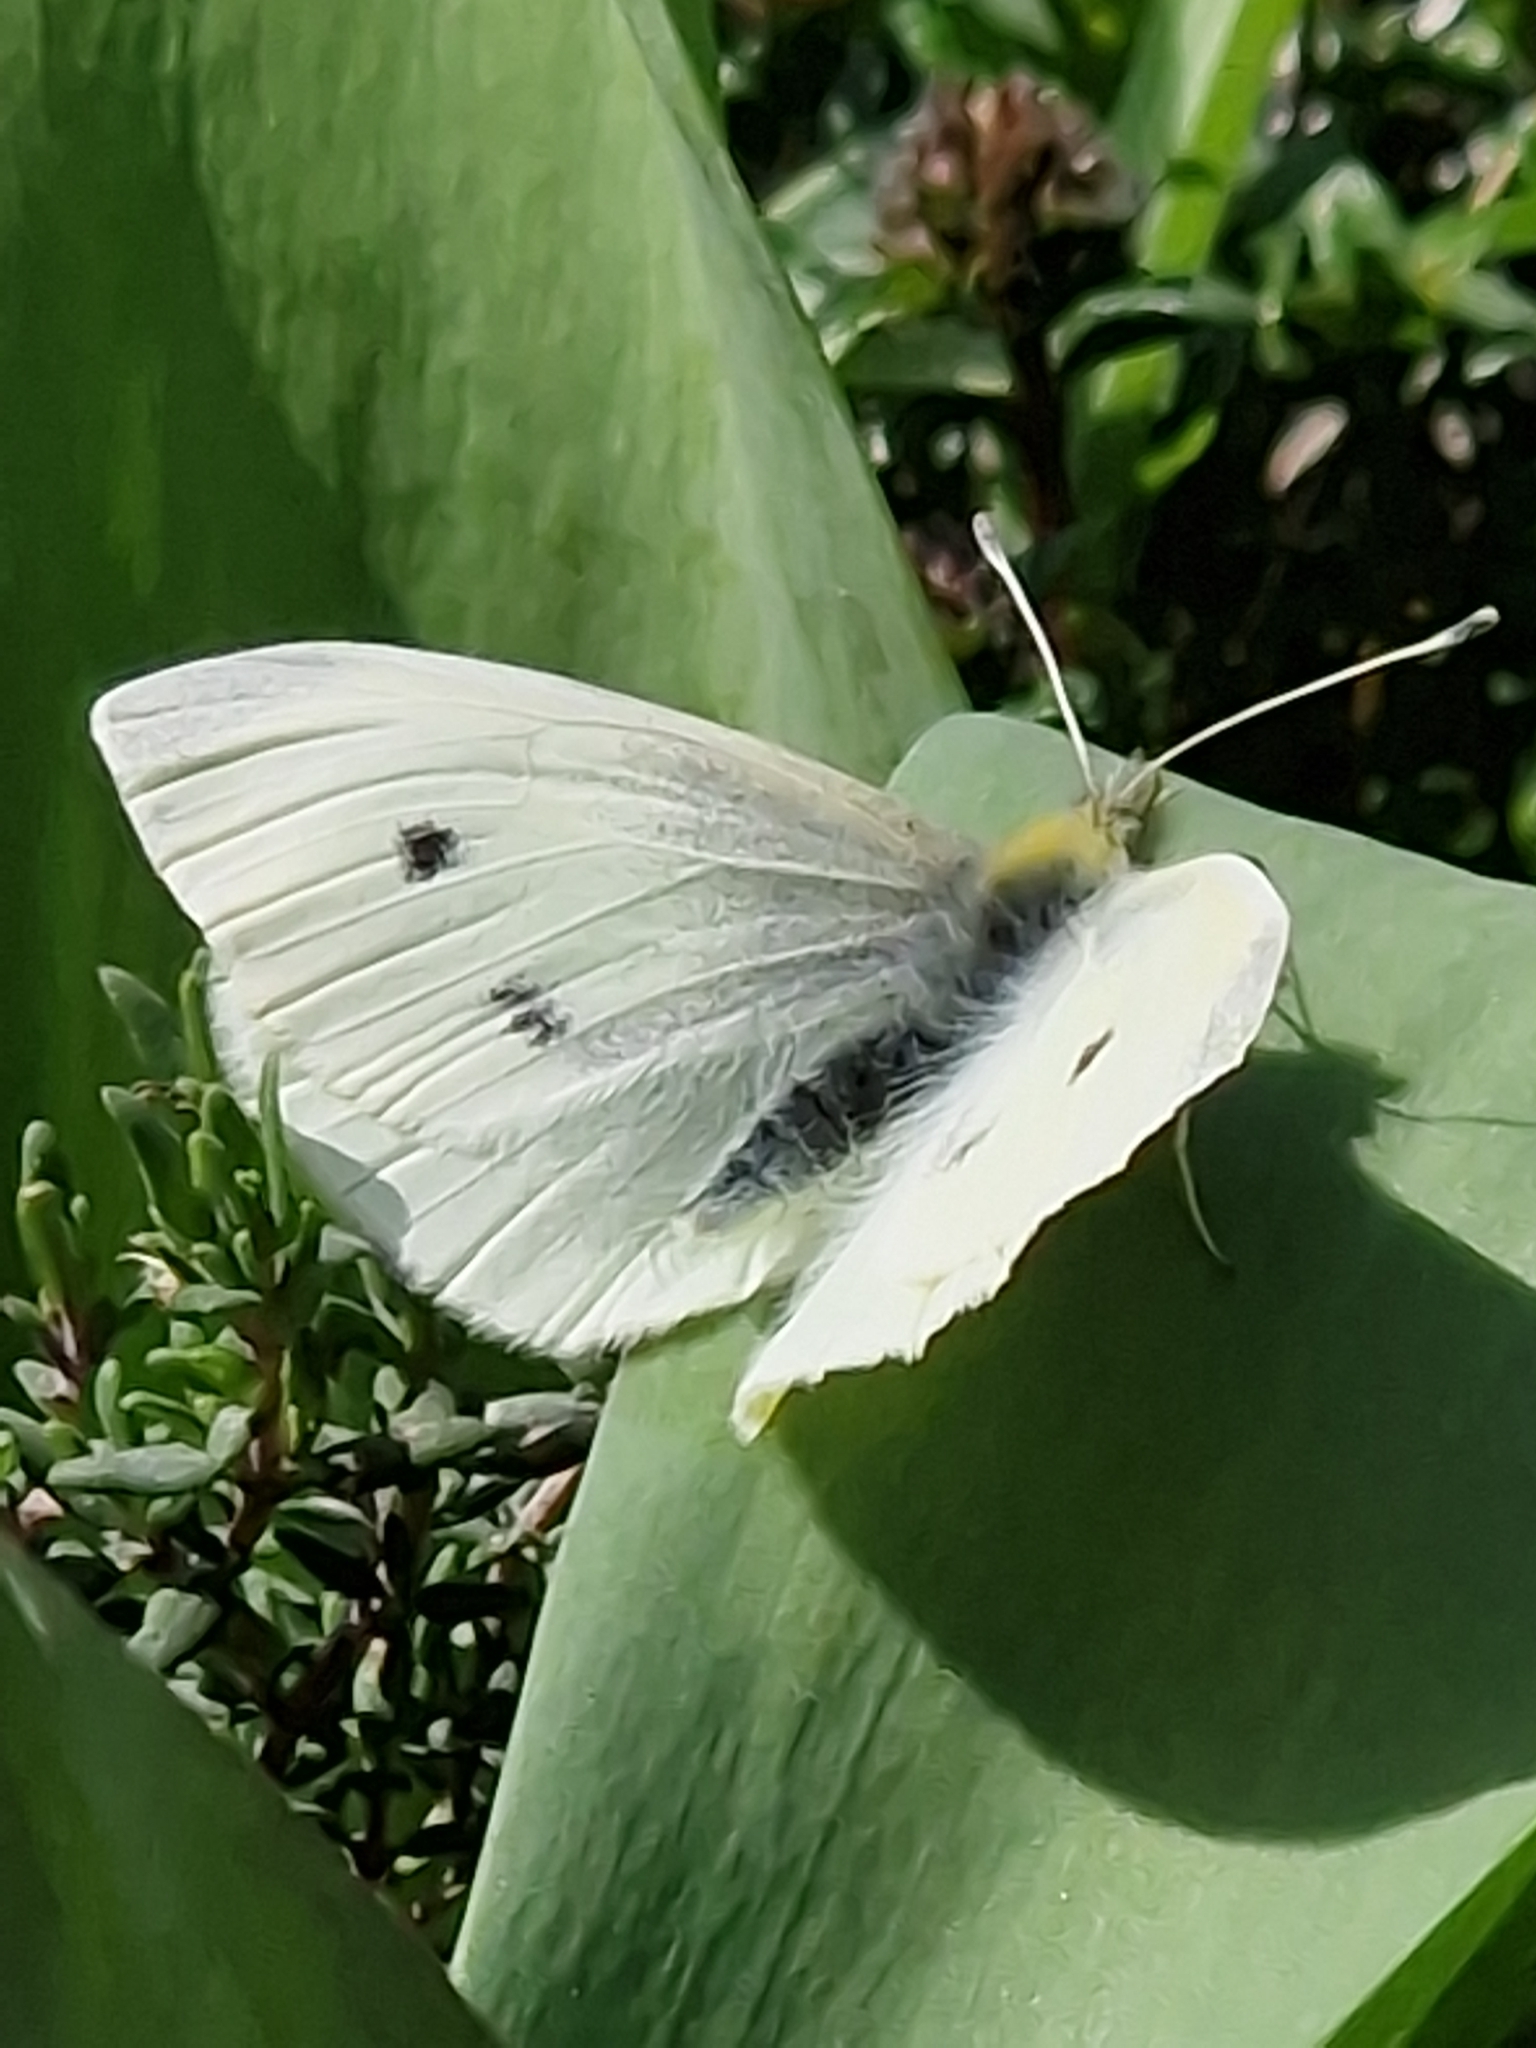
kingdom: Animalia
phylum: Arthropoda
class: Insecta
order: Lepidoptera
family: Pieridae
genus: Pieris
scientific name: Pieris rapae
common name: Small white
